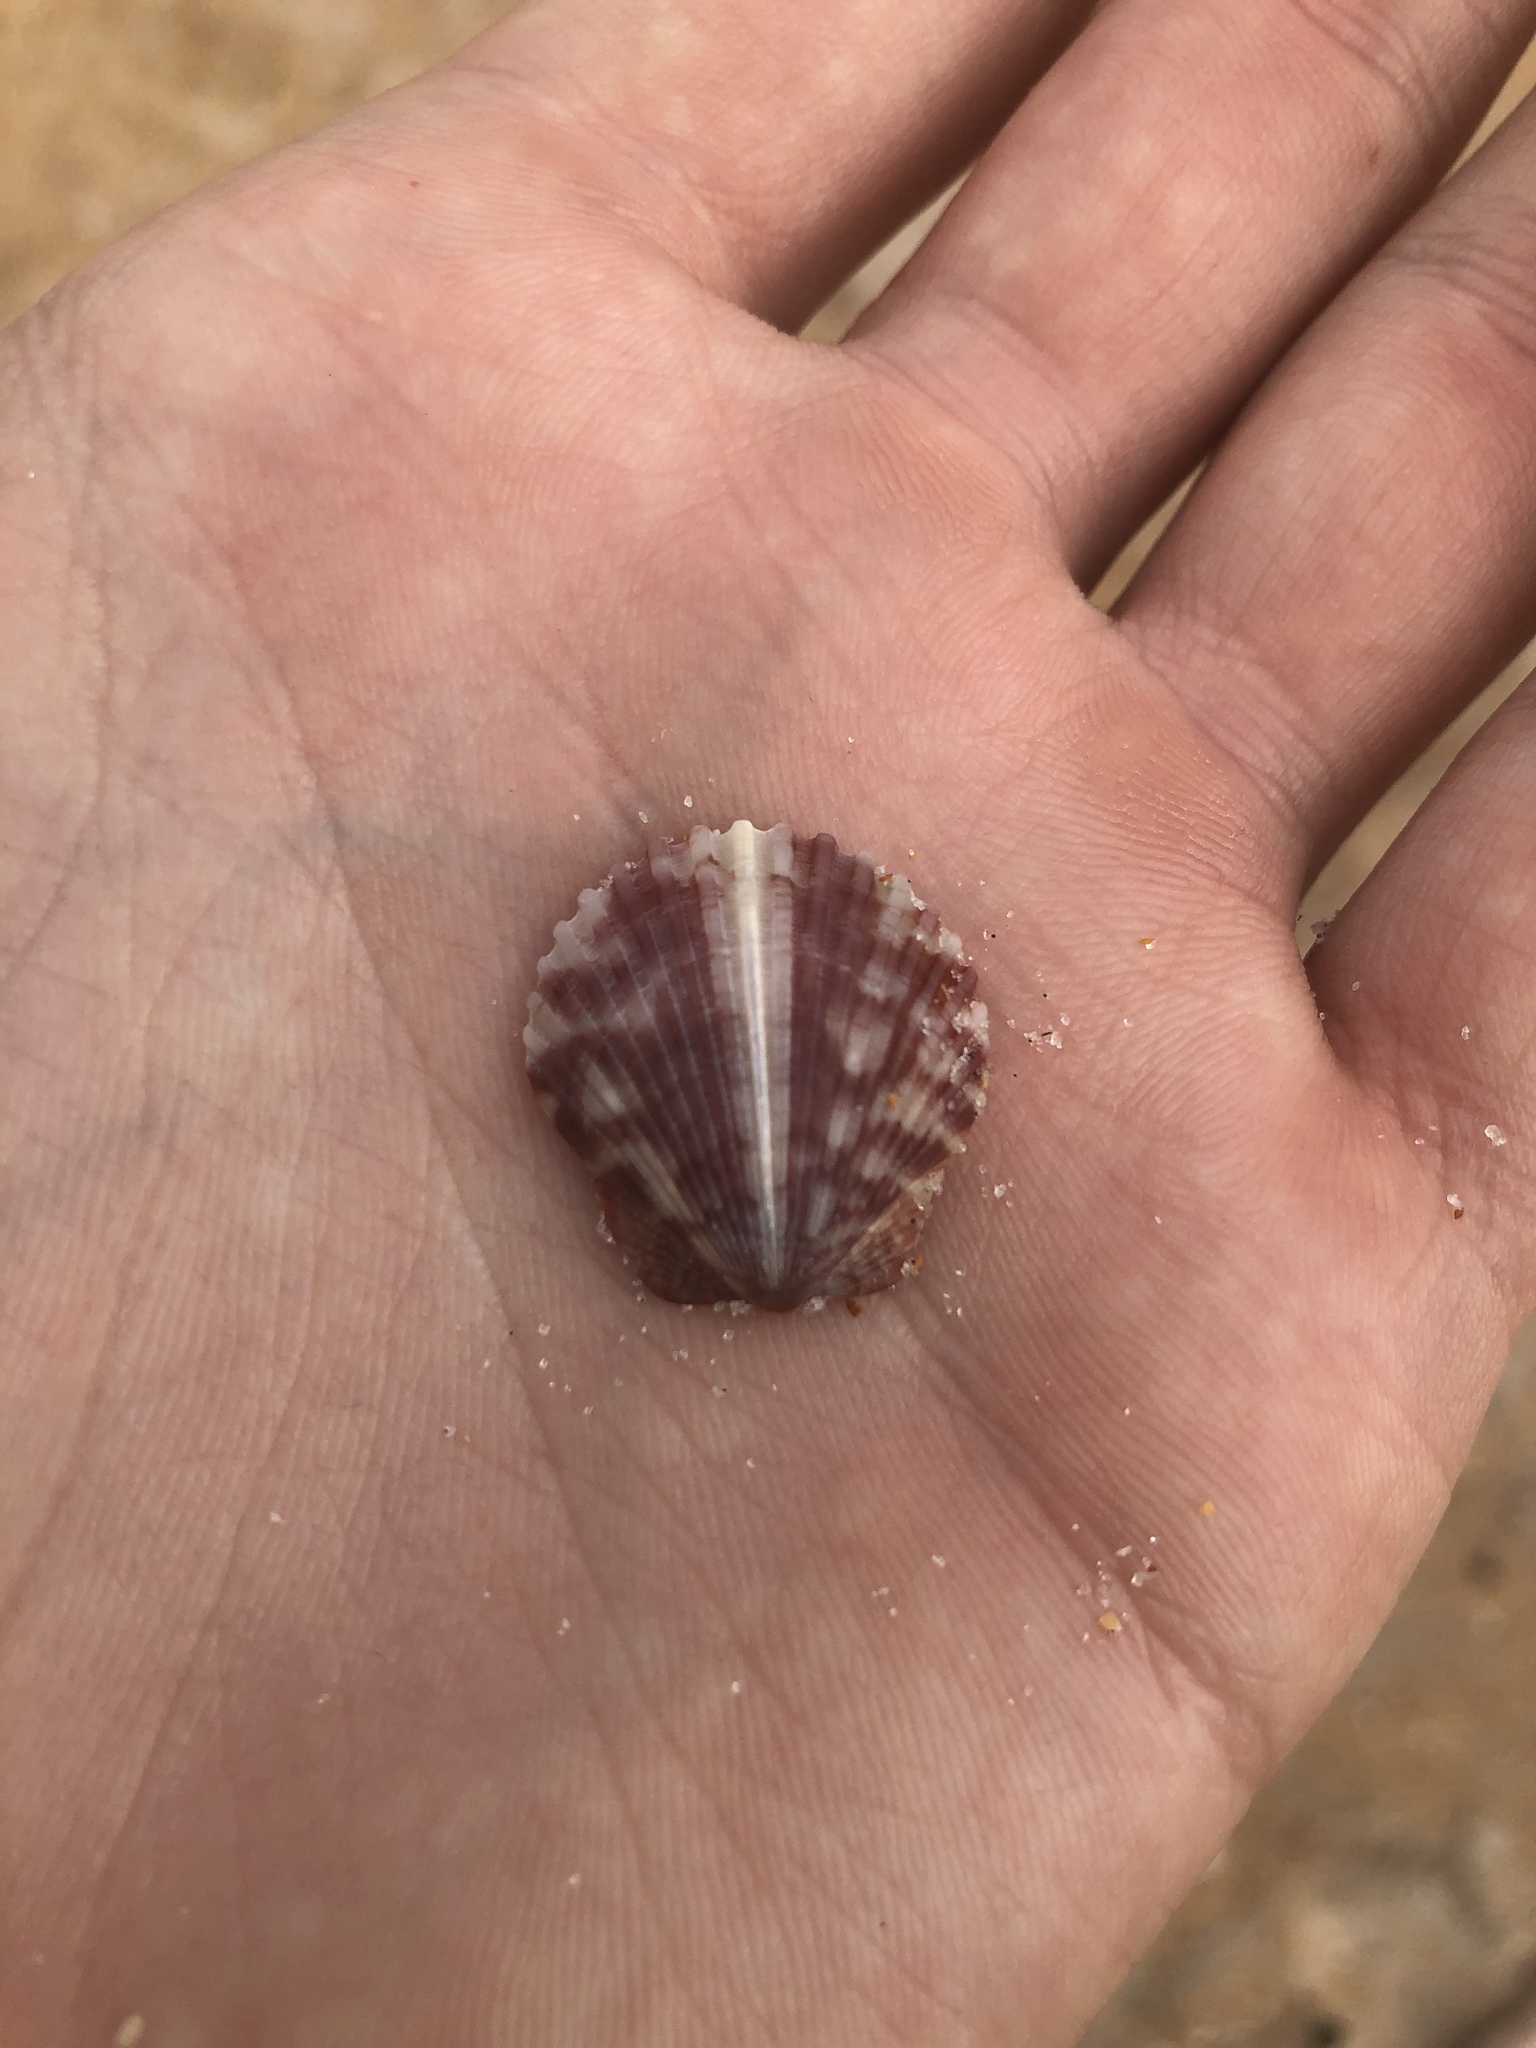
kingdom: Animalia
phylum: Mollusca
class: Bivalvia
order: Pectinida
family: Pectinidae
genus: Argopecten
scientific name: Argopecten gibbus
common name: Atlantic calico scallop
